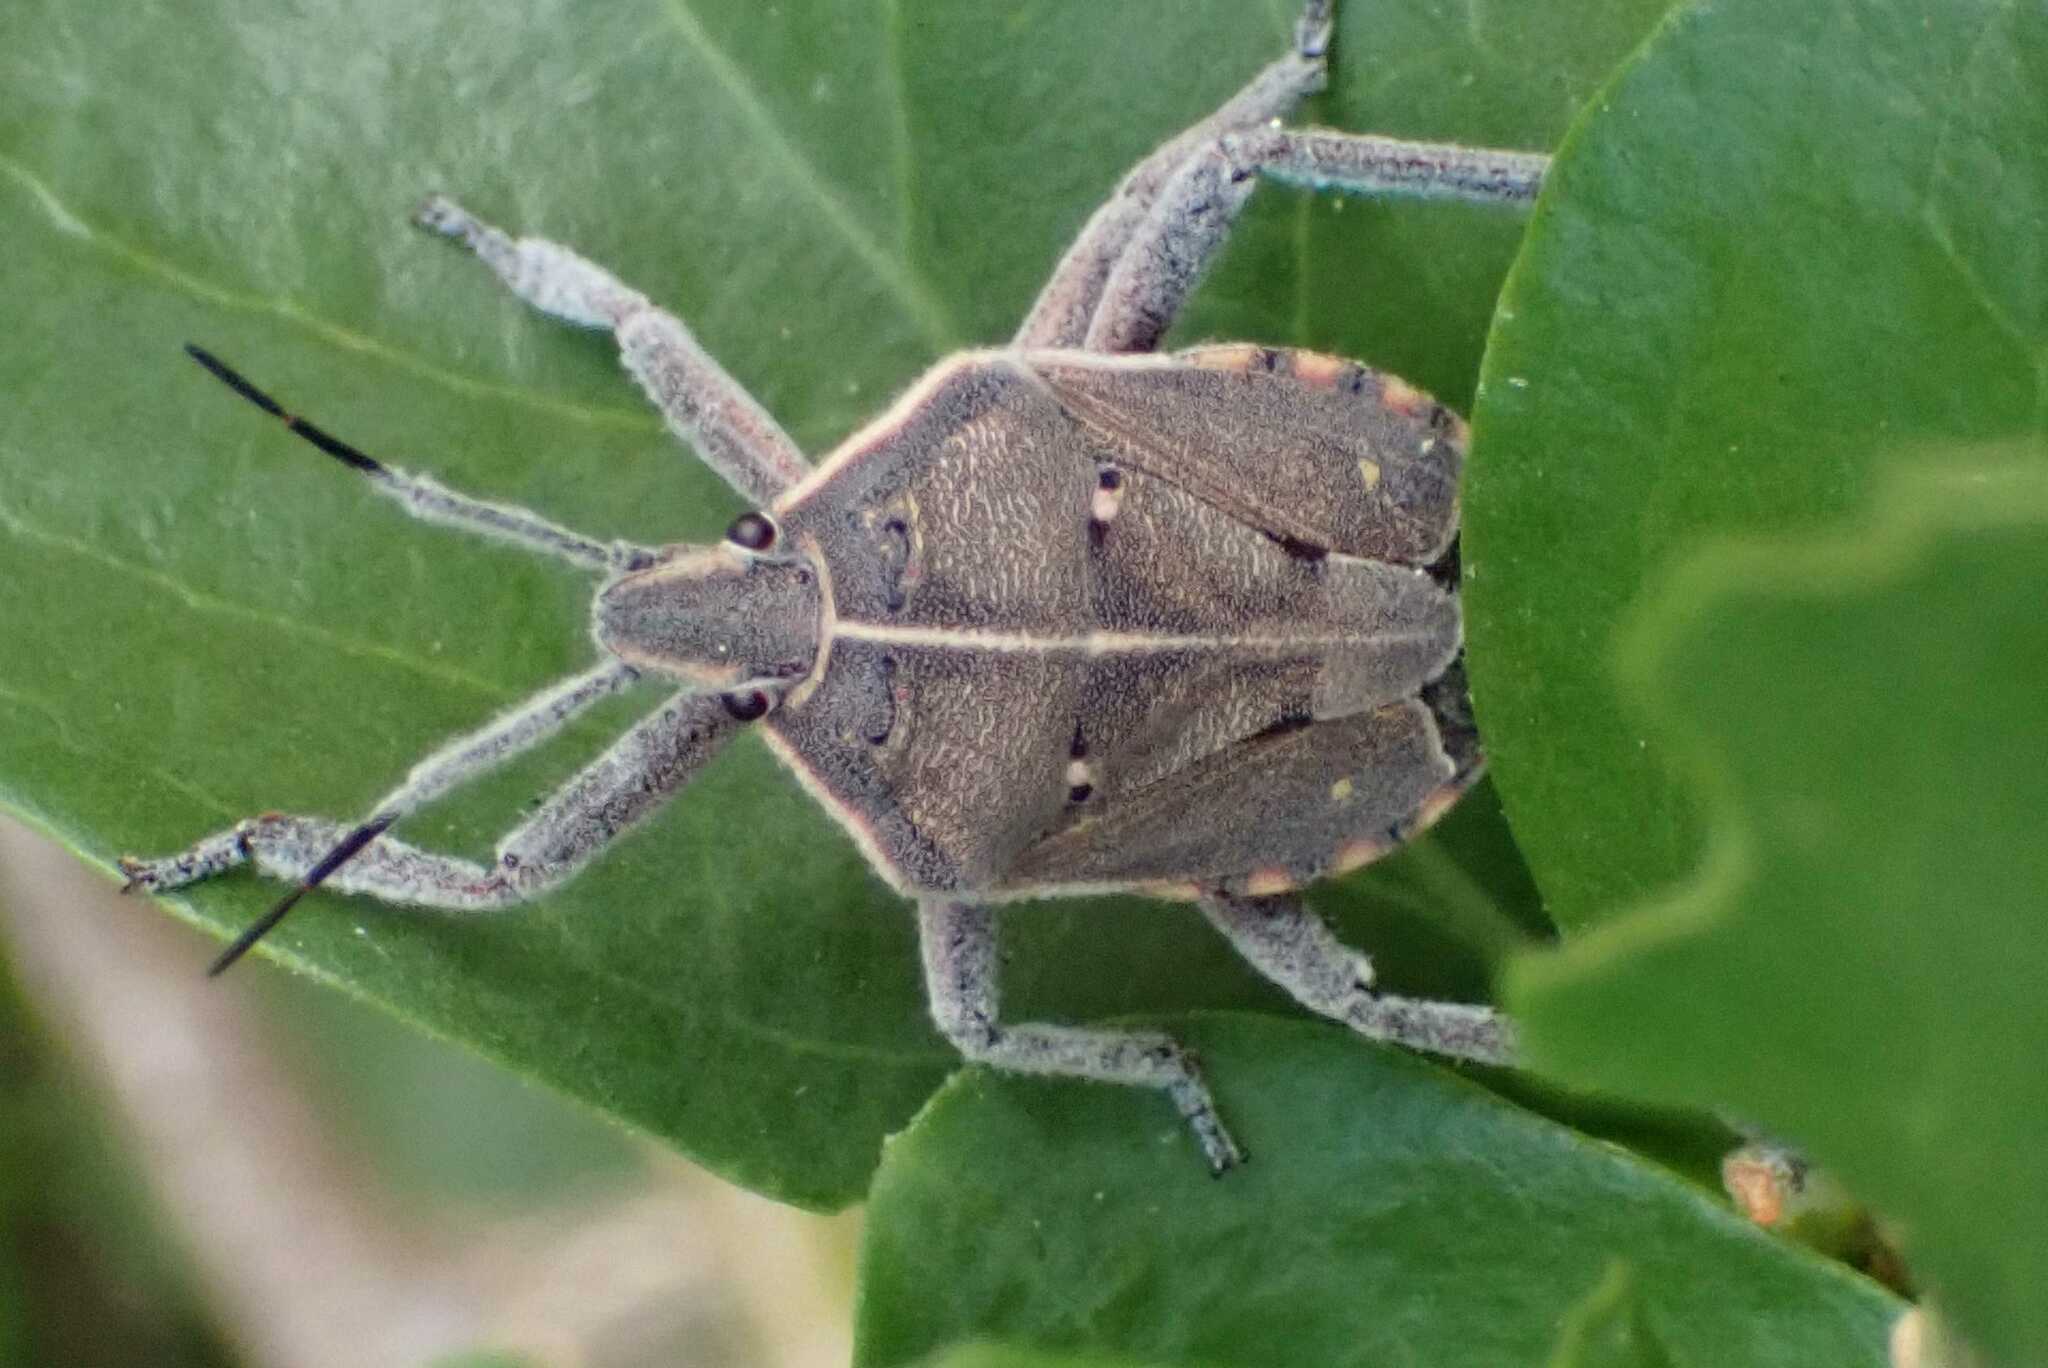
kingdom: Animalia
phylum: Arthropoda
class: Insecta
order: Hemiptera
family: Pentatomidae
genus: Pseudatelus
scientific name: Pseudatelus
